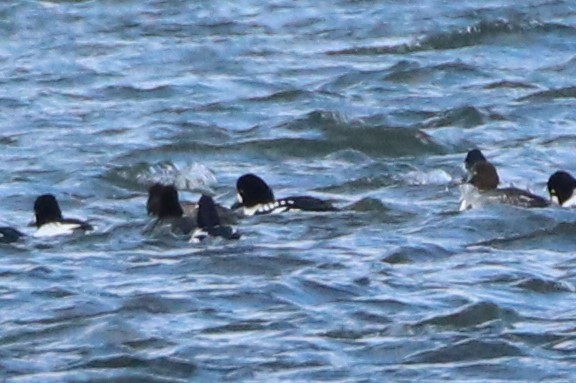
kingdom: Animalia
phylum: Chordata
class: Aves
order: Anseriformes
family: Anatidae
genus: Bucephala
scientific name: Bucephala islandica
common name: Barrow's goldeneye
